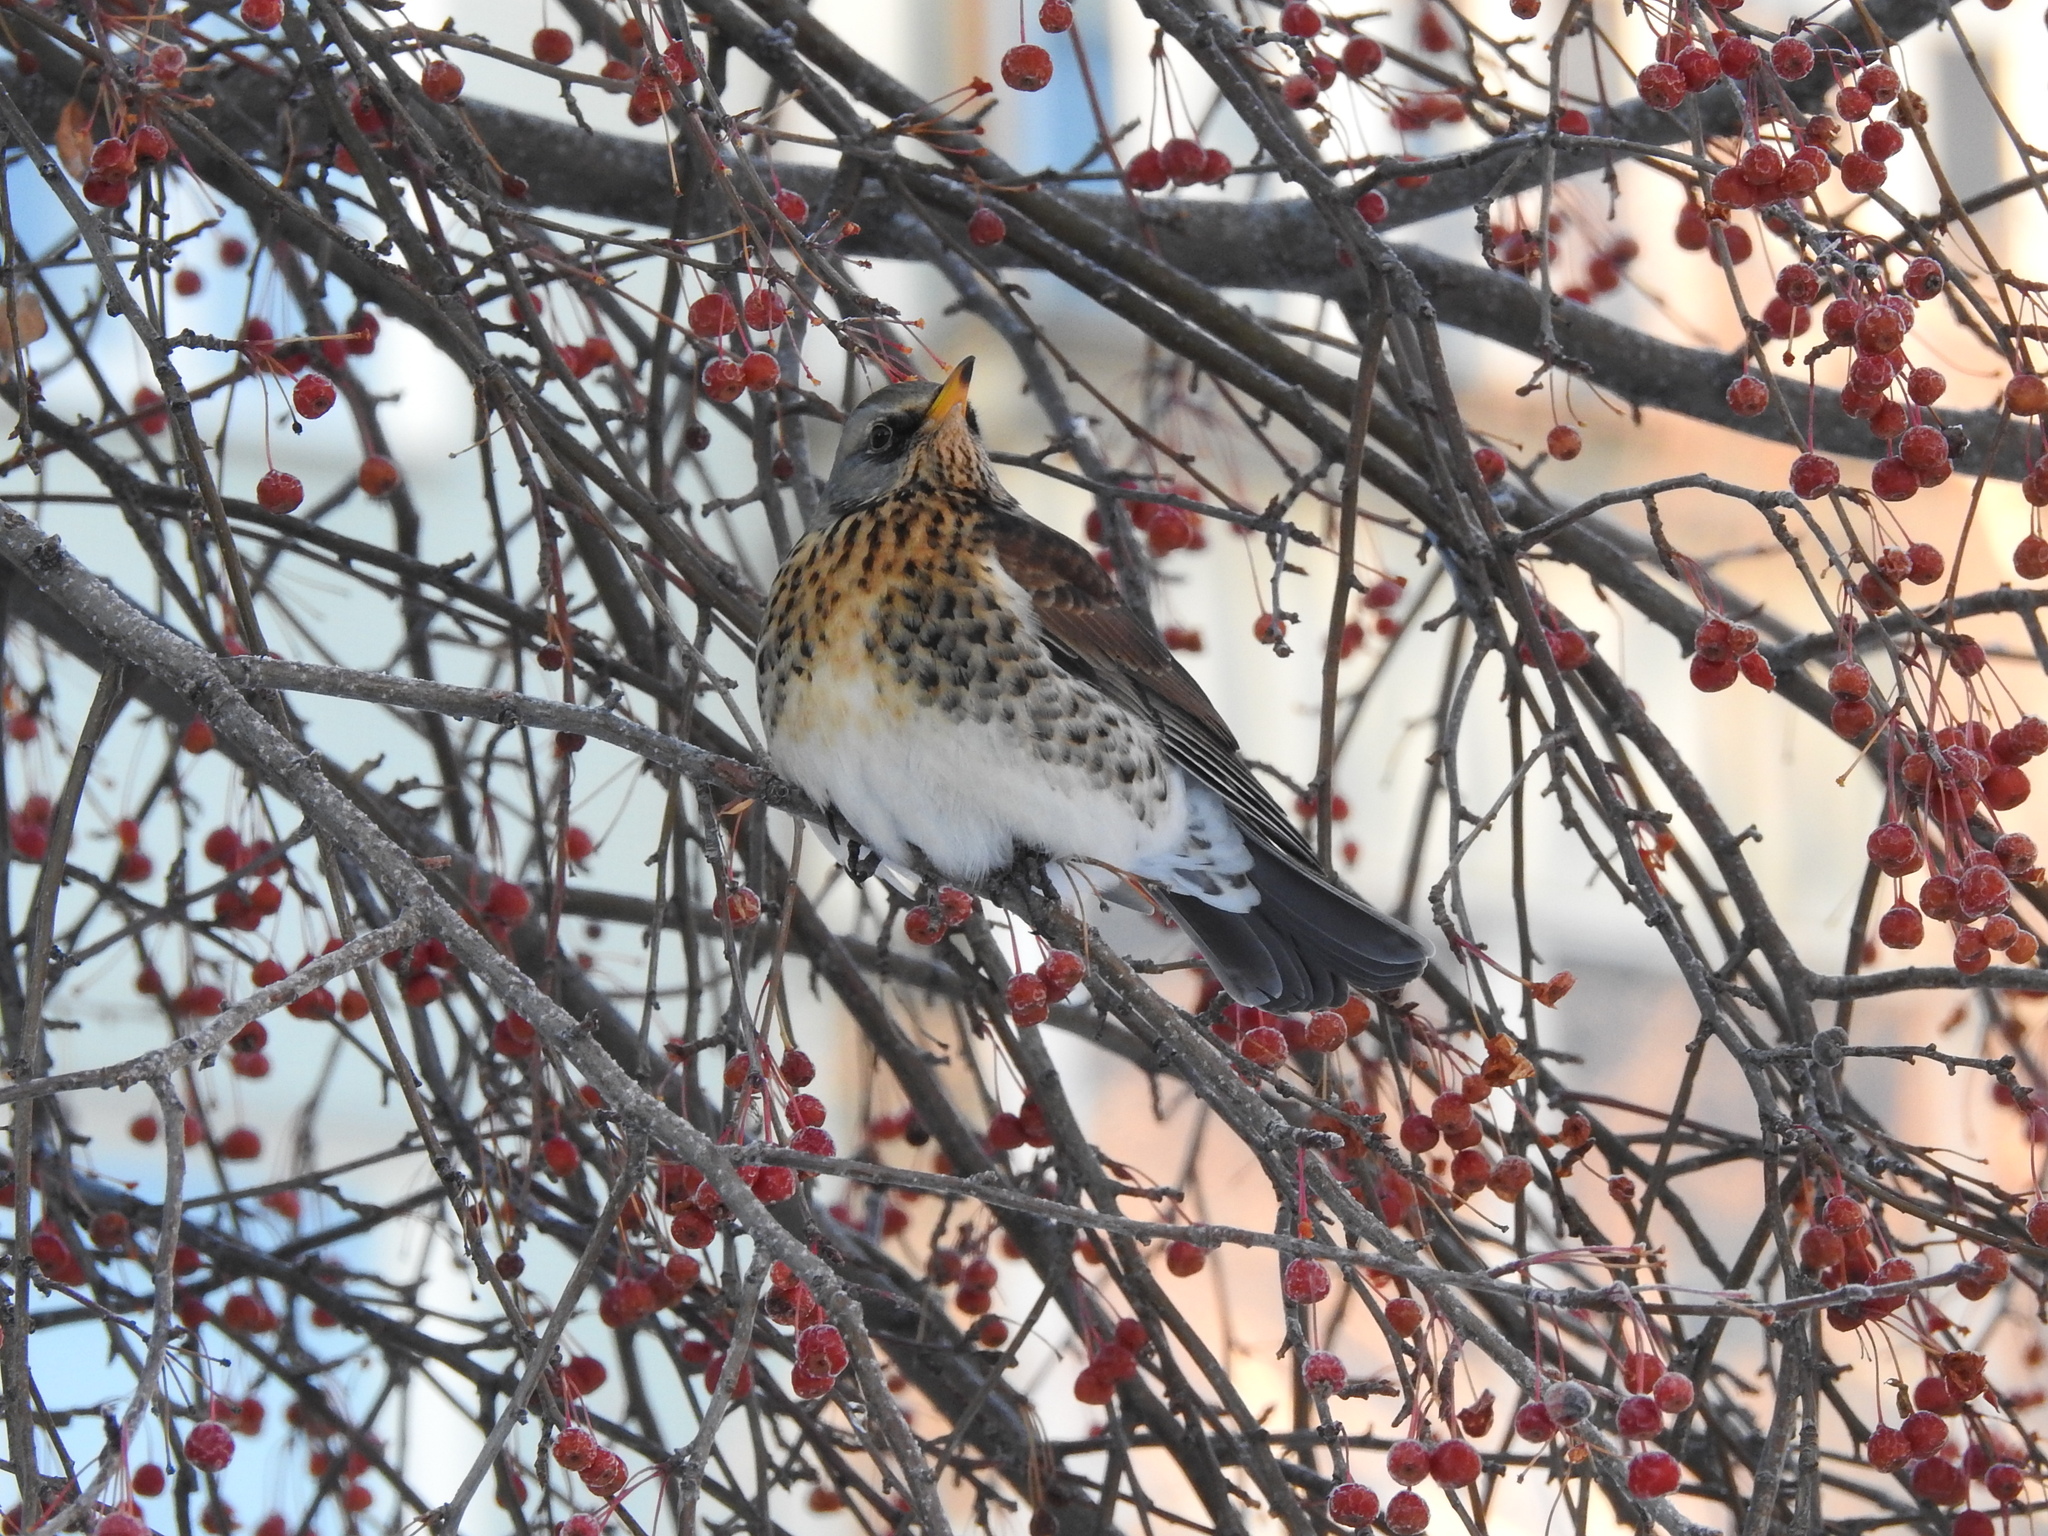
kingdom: Animalia
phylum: Chordata
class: Aves
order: Passeriformes
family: Turdidae
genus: Turdus
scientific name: Turdus pilaris
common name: Fieldfare
